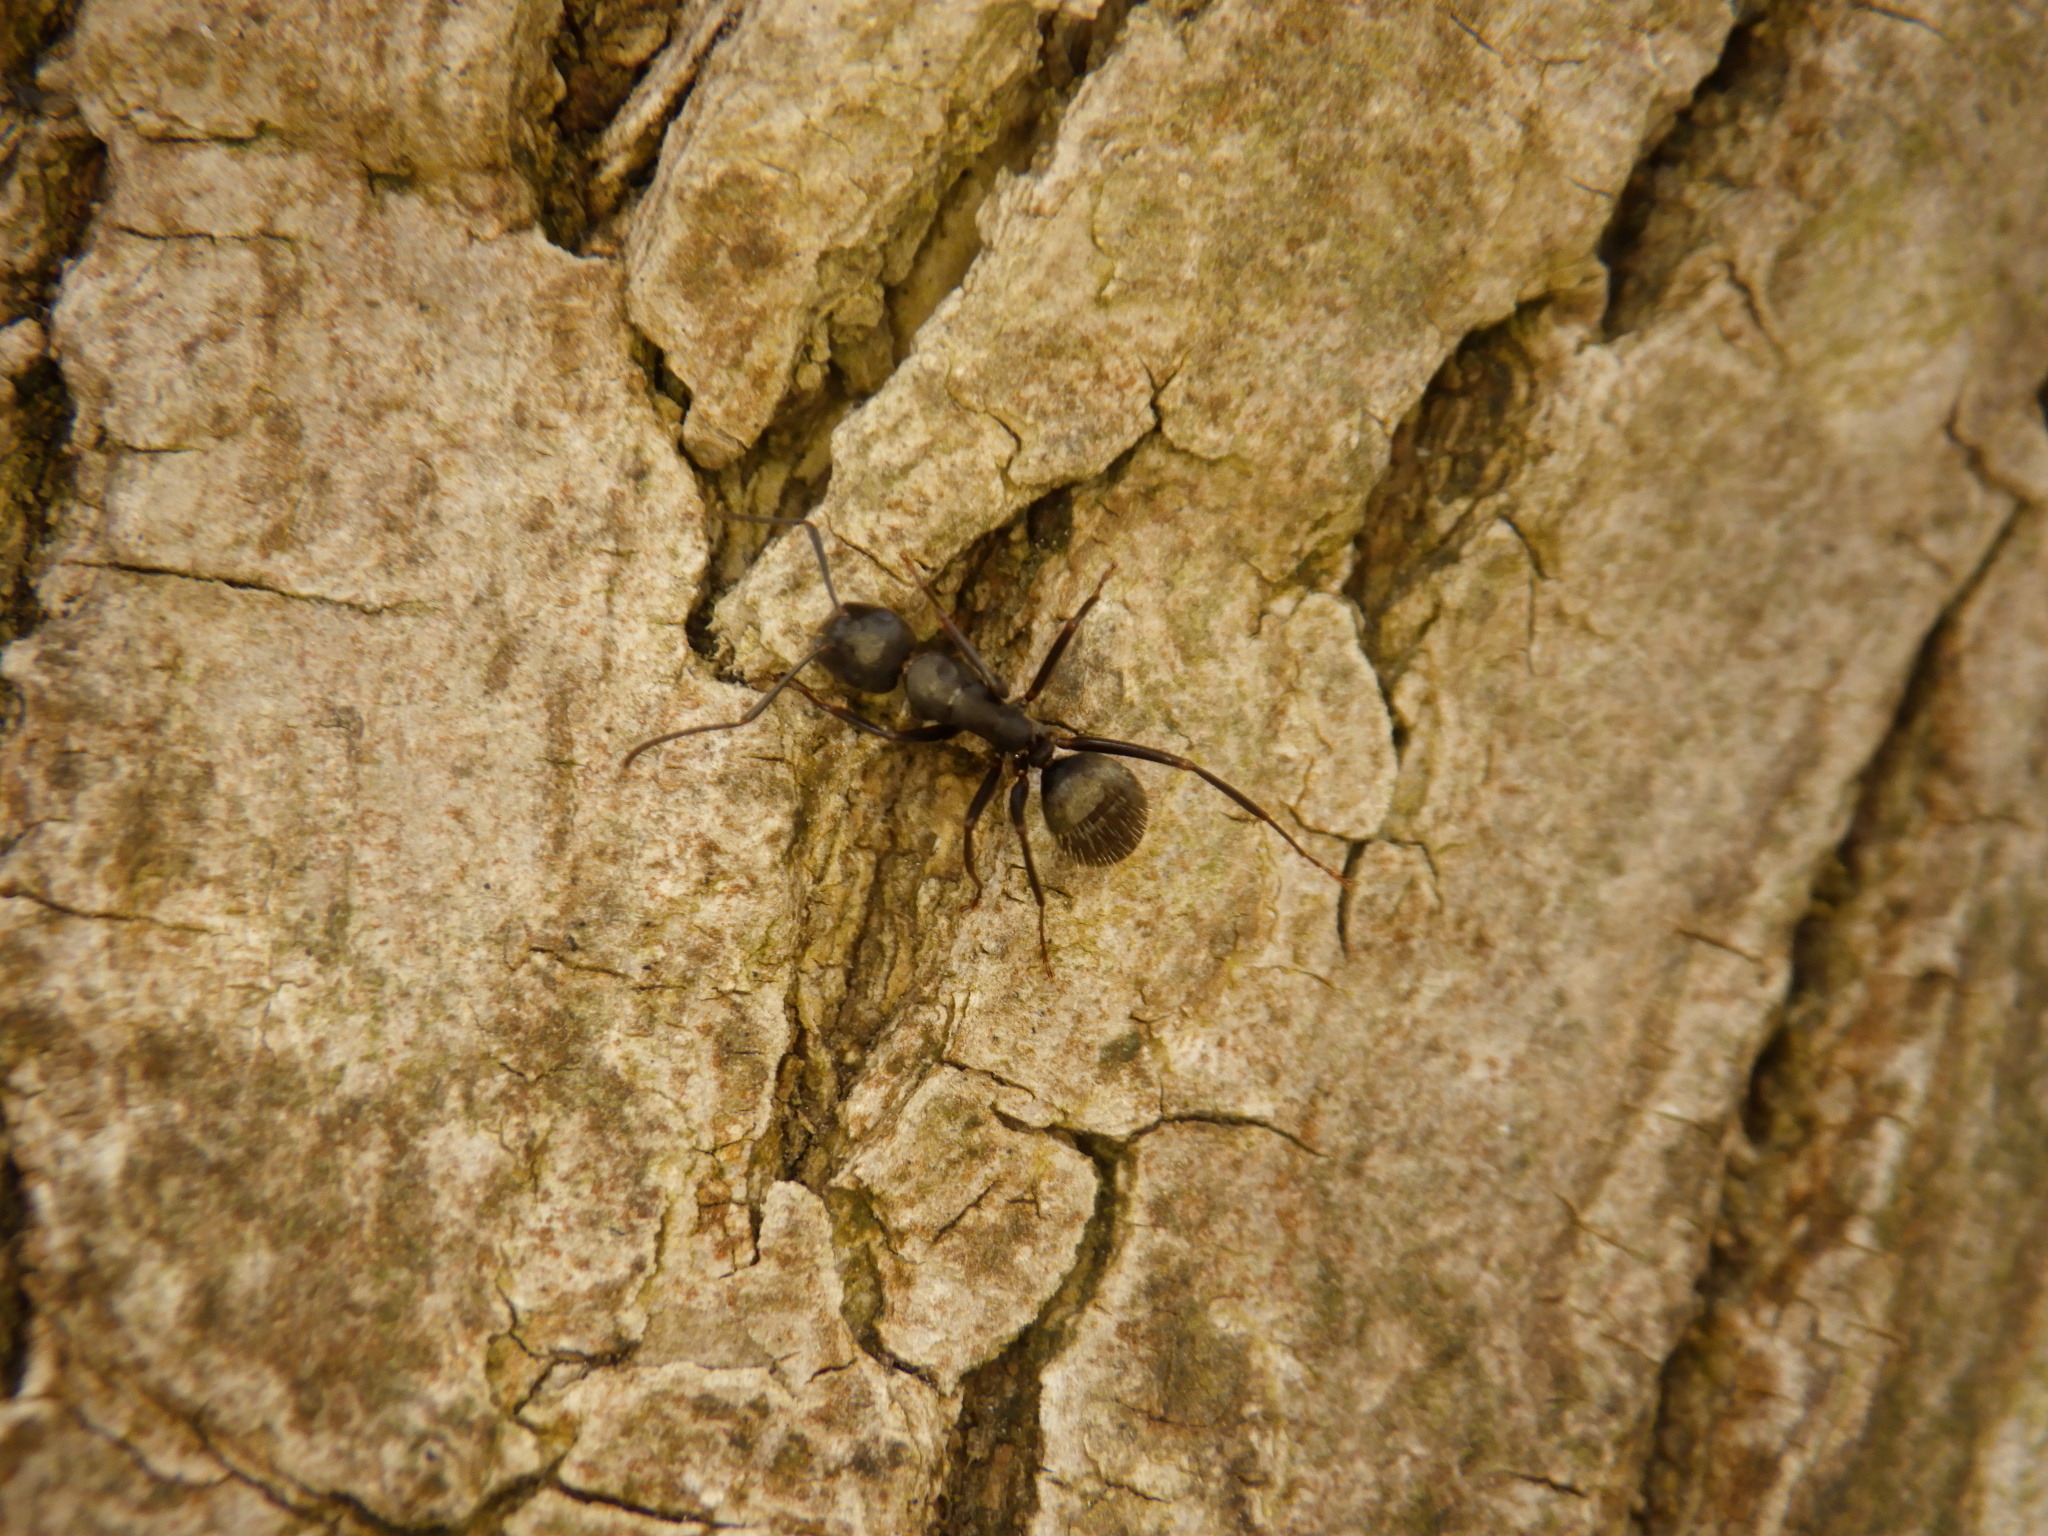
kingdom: Animalia
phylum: Arthropoda
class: Insecta
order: Hymenoptera
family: Formicidae
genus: Camponotus
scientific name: Camponotus pennsylvanicus
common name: Black carpenter ant
